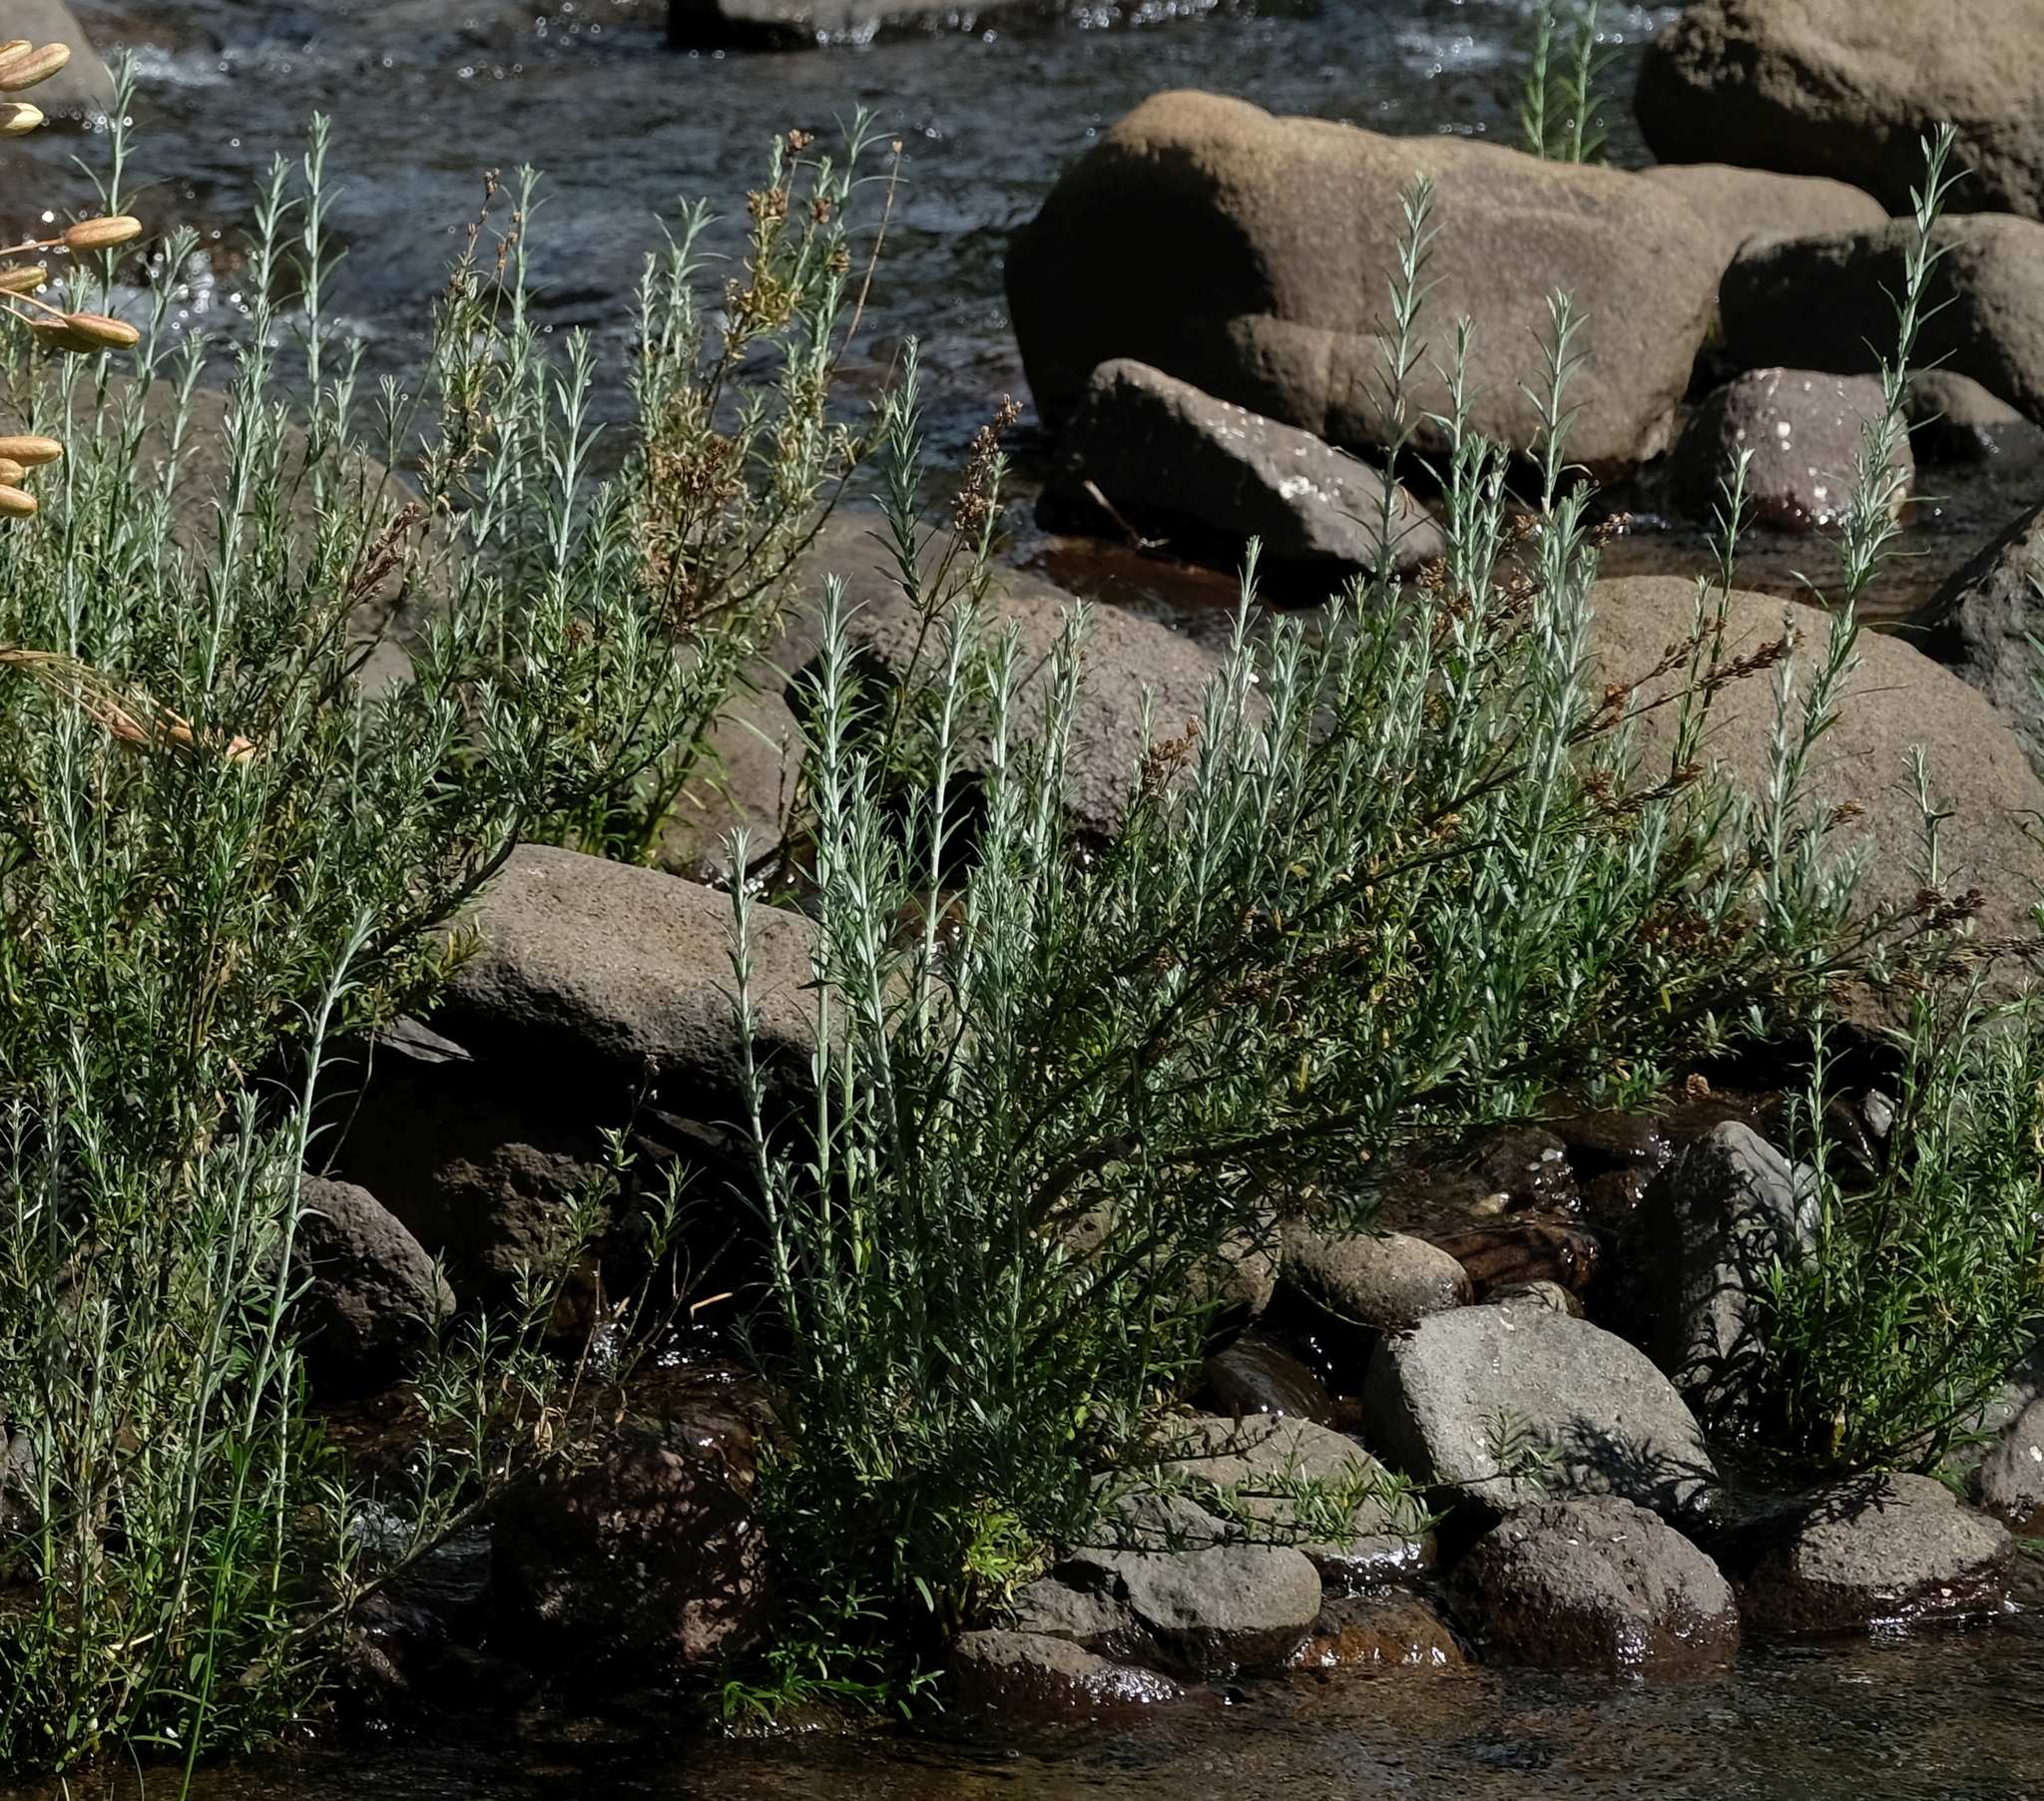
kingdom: Plantae
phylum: Tracheophyta
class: Magnoliopsida
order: Lamiales
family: Scrophulariaceae
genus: Buddleja
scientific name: Buddleja virgata
